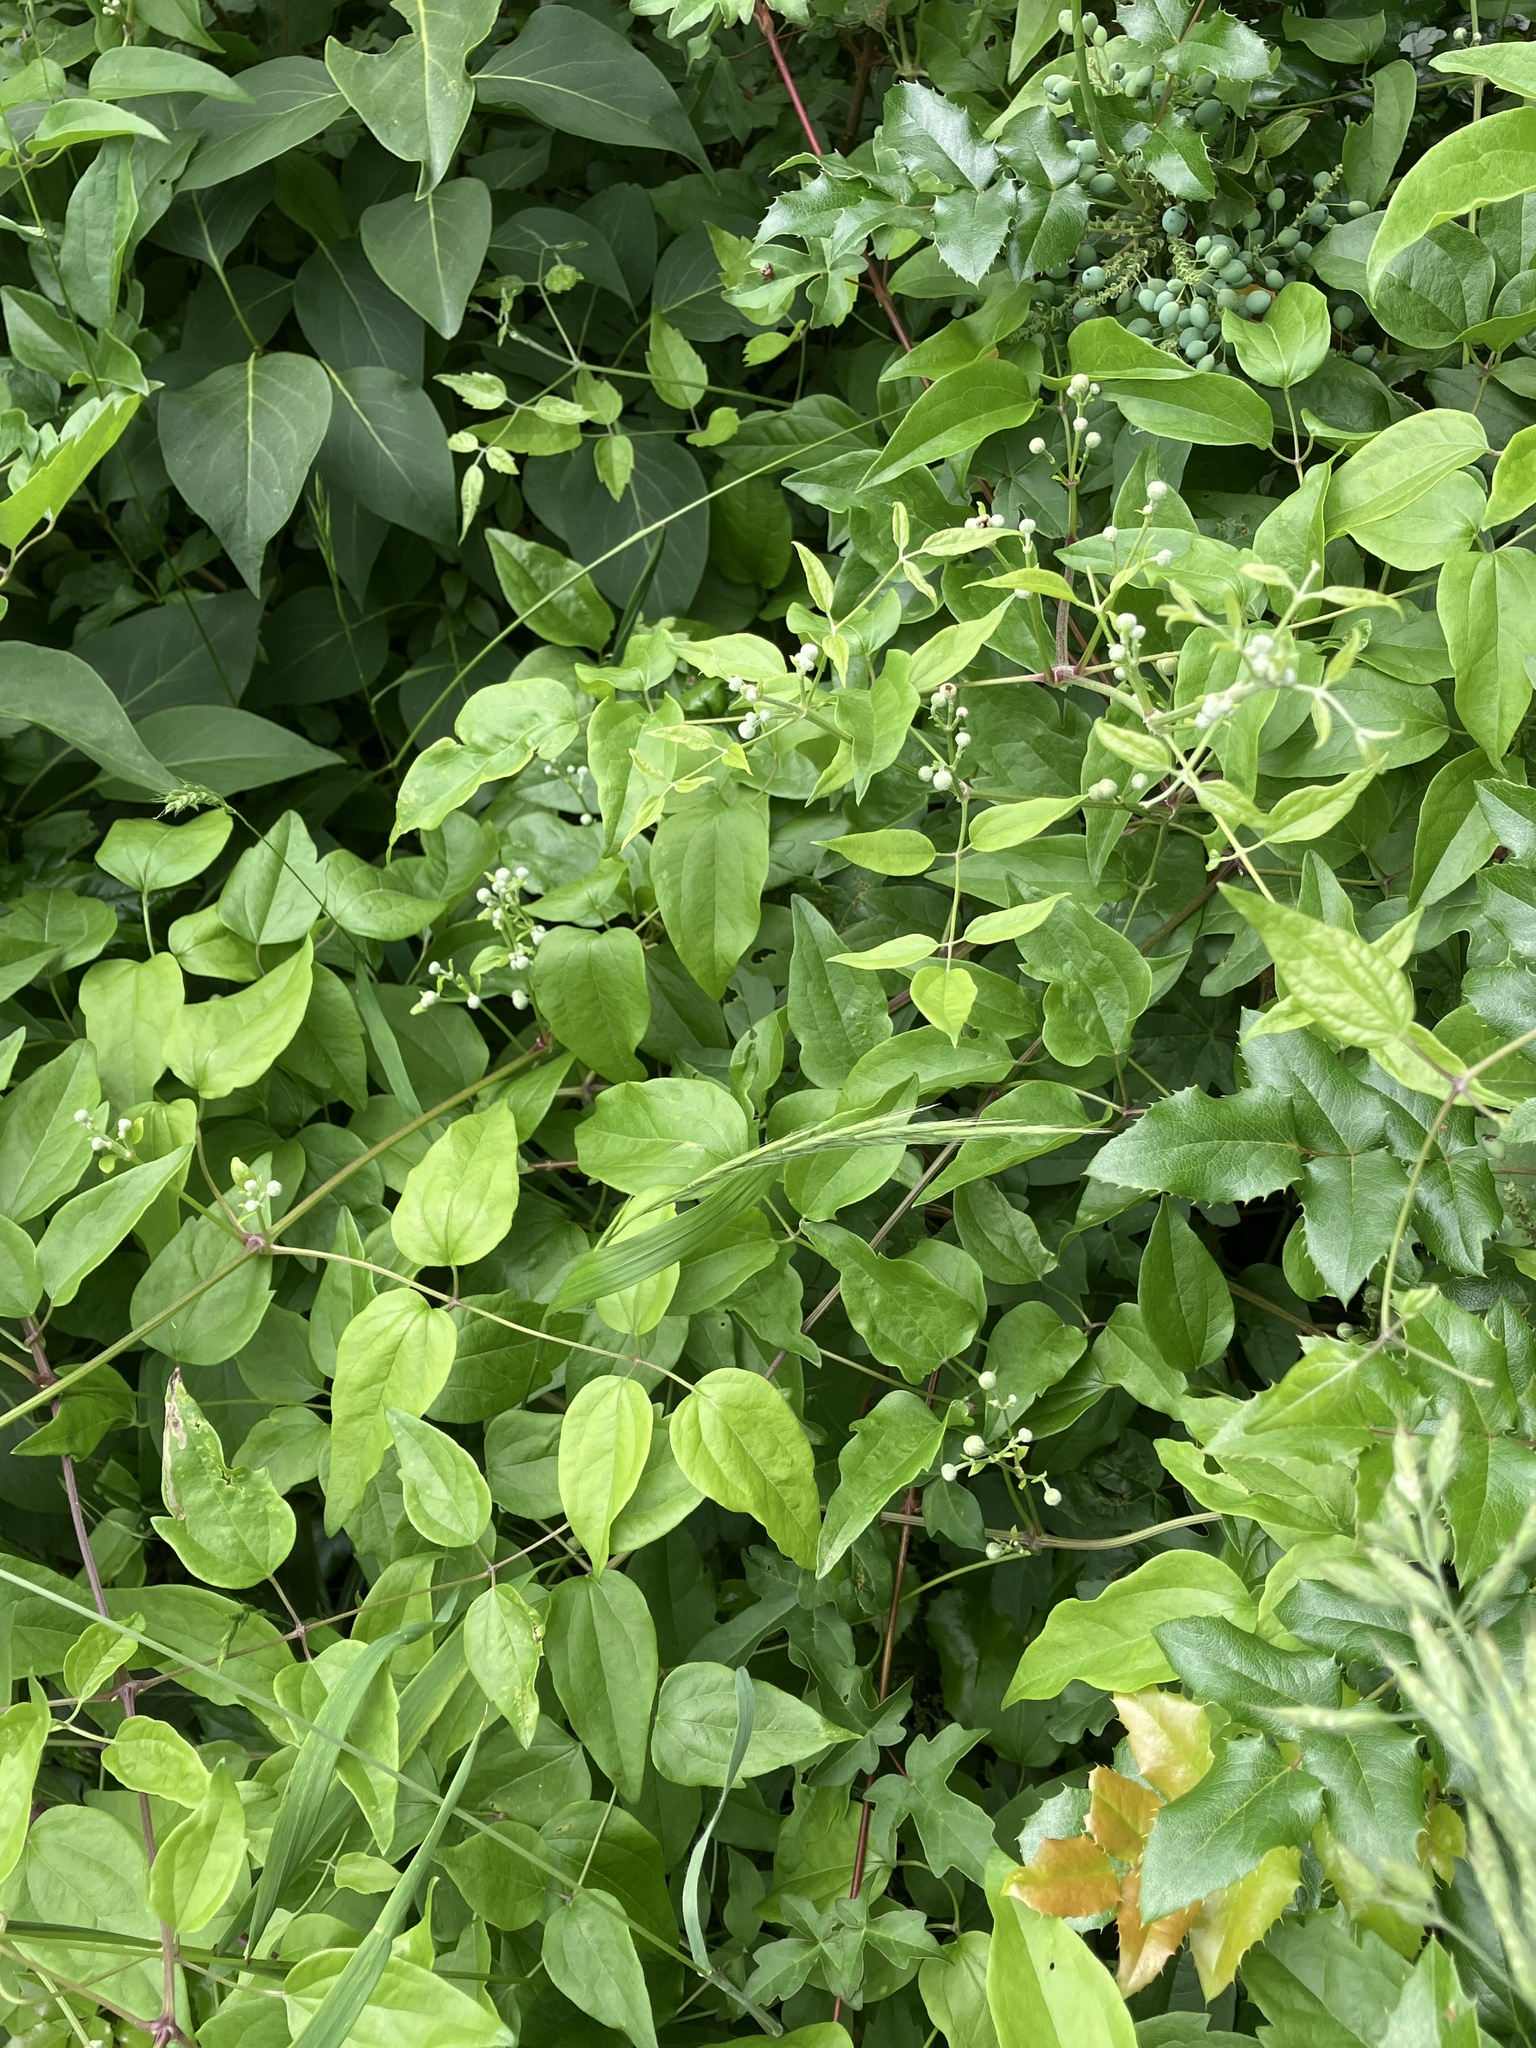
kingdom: Plantae
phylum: Tracheophyta
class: Magnoliopsida
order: Ranunculales
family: Ranunculaceae
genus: Clematis
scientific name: Clematis vitalba
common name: Evergreen clematis
